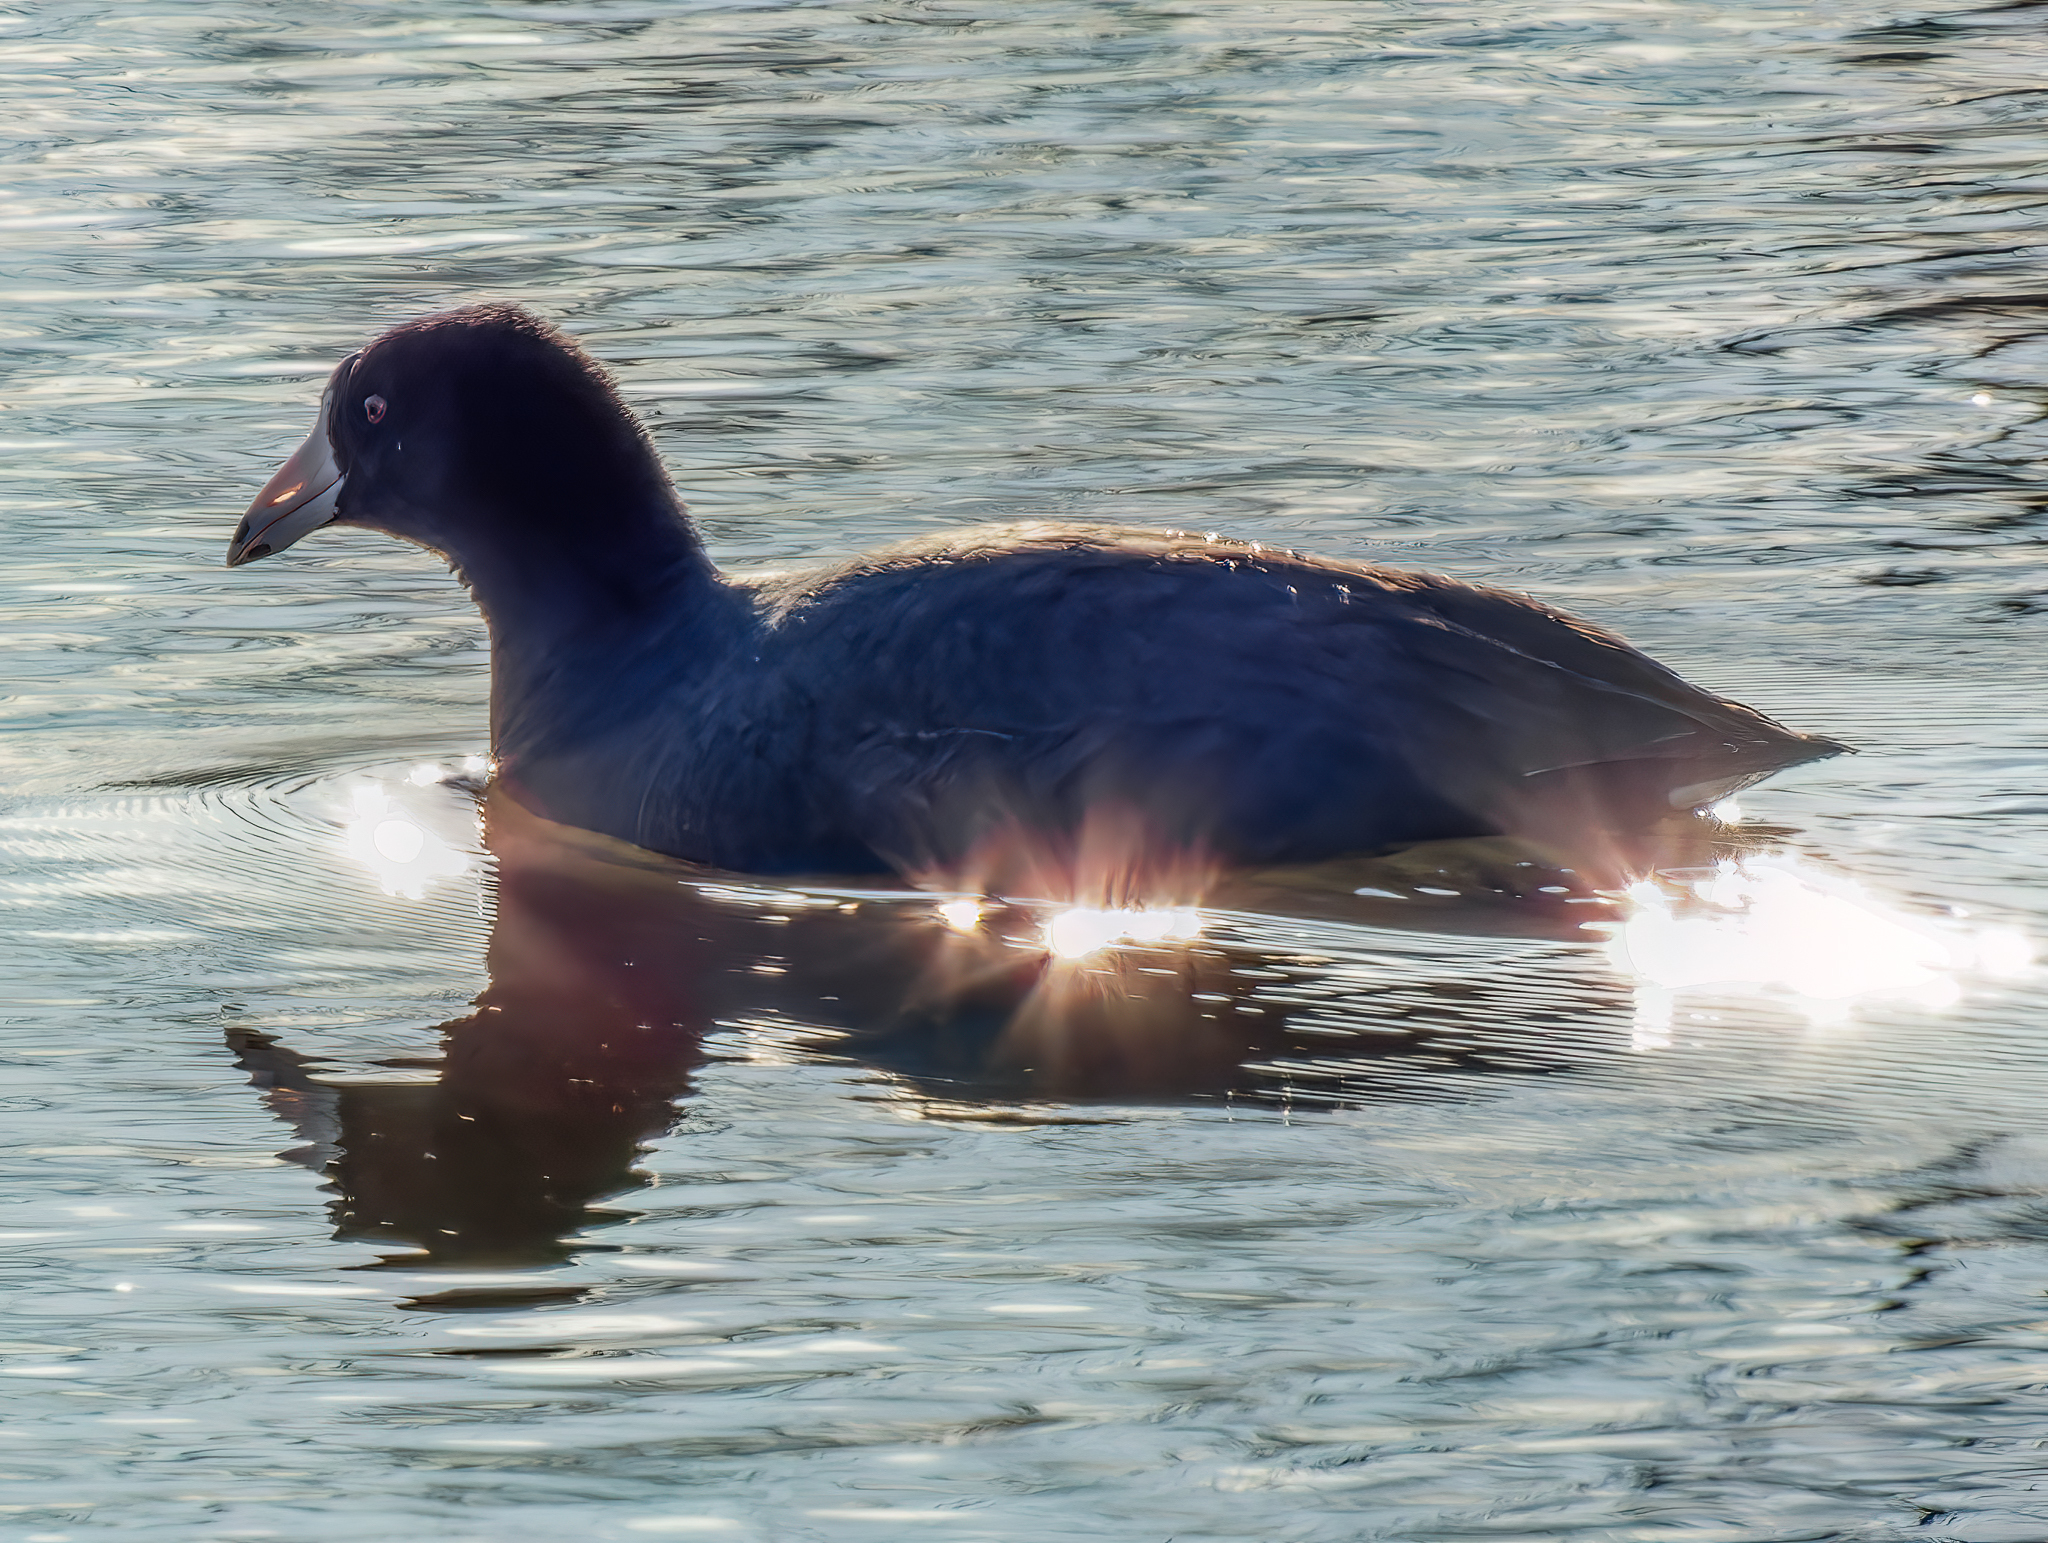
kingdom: Animalia
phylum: Chordata
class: Aves
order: Gruiformes
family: Rallidae
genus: Fulica
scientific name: Fulica americana
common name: American coot
